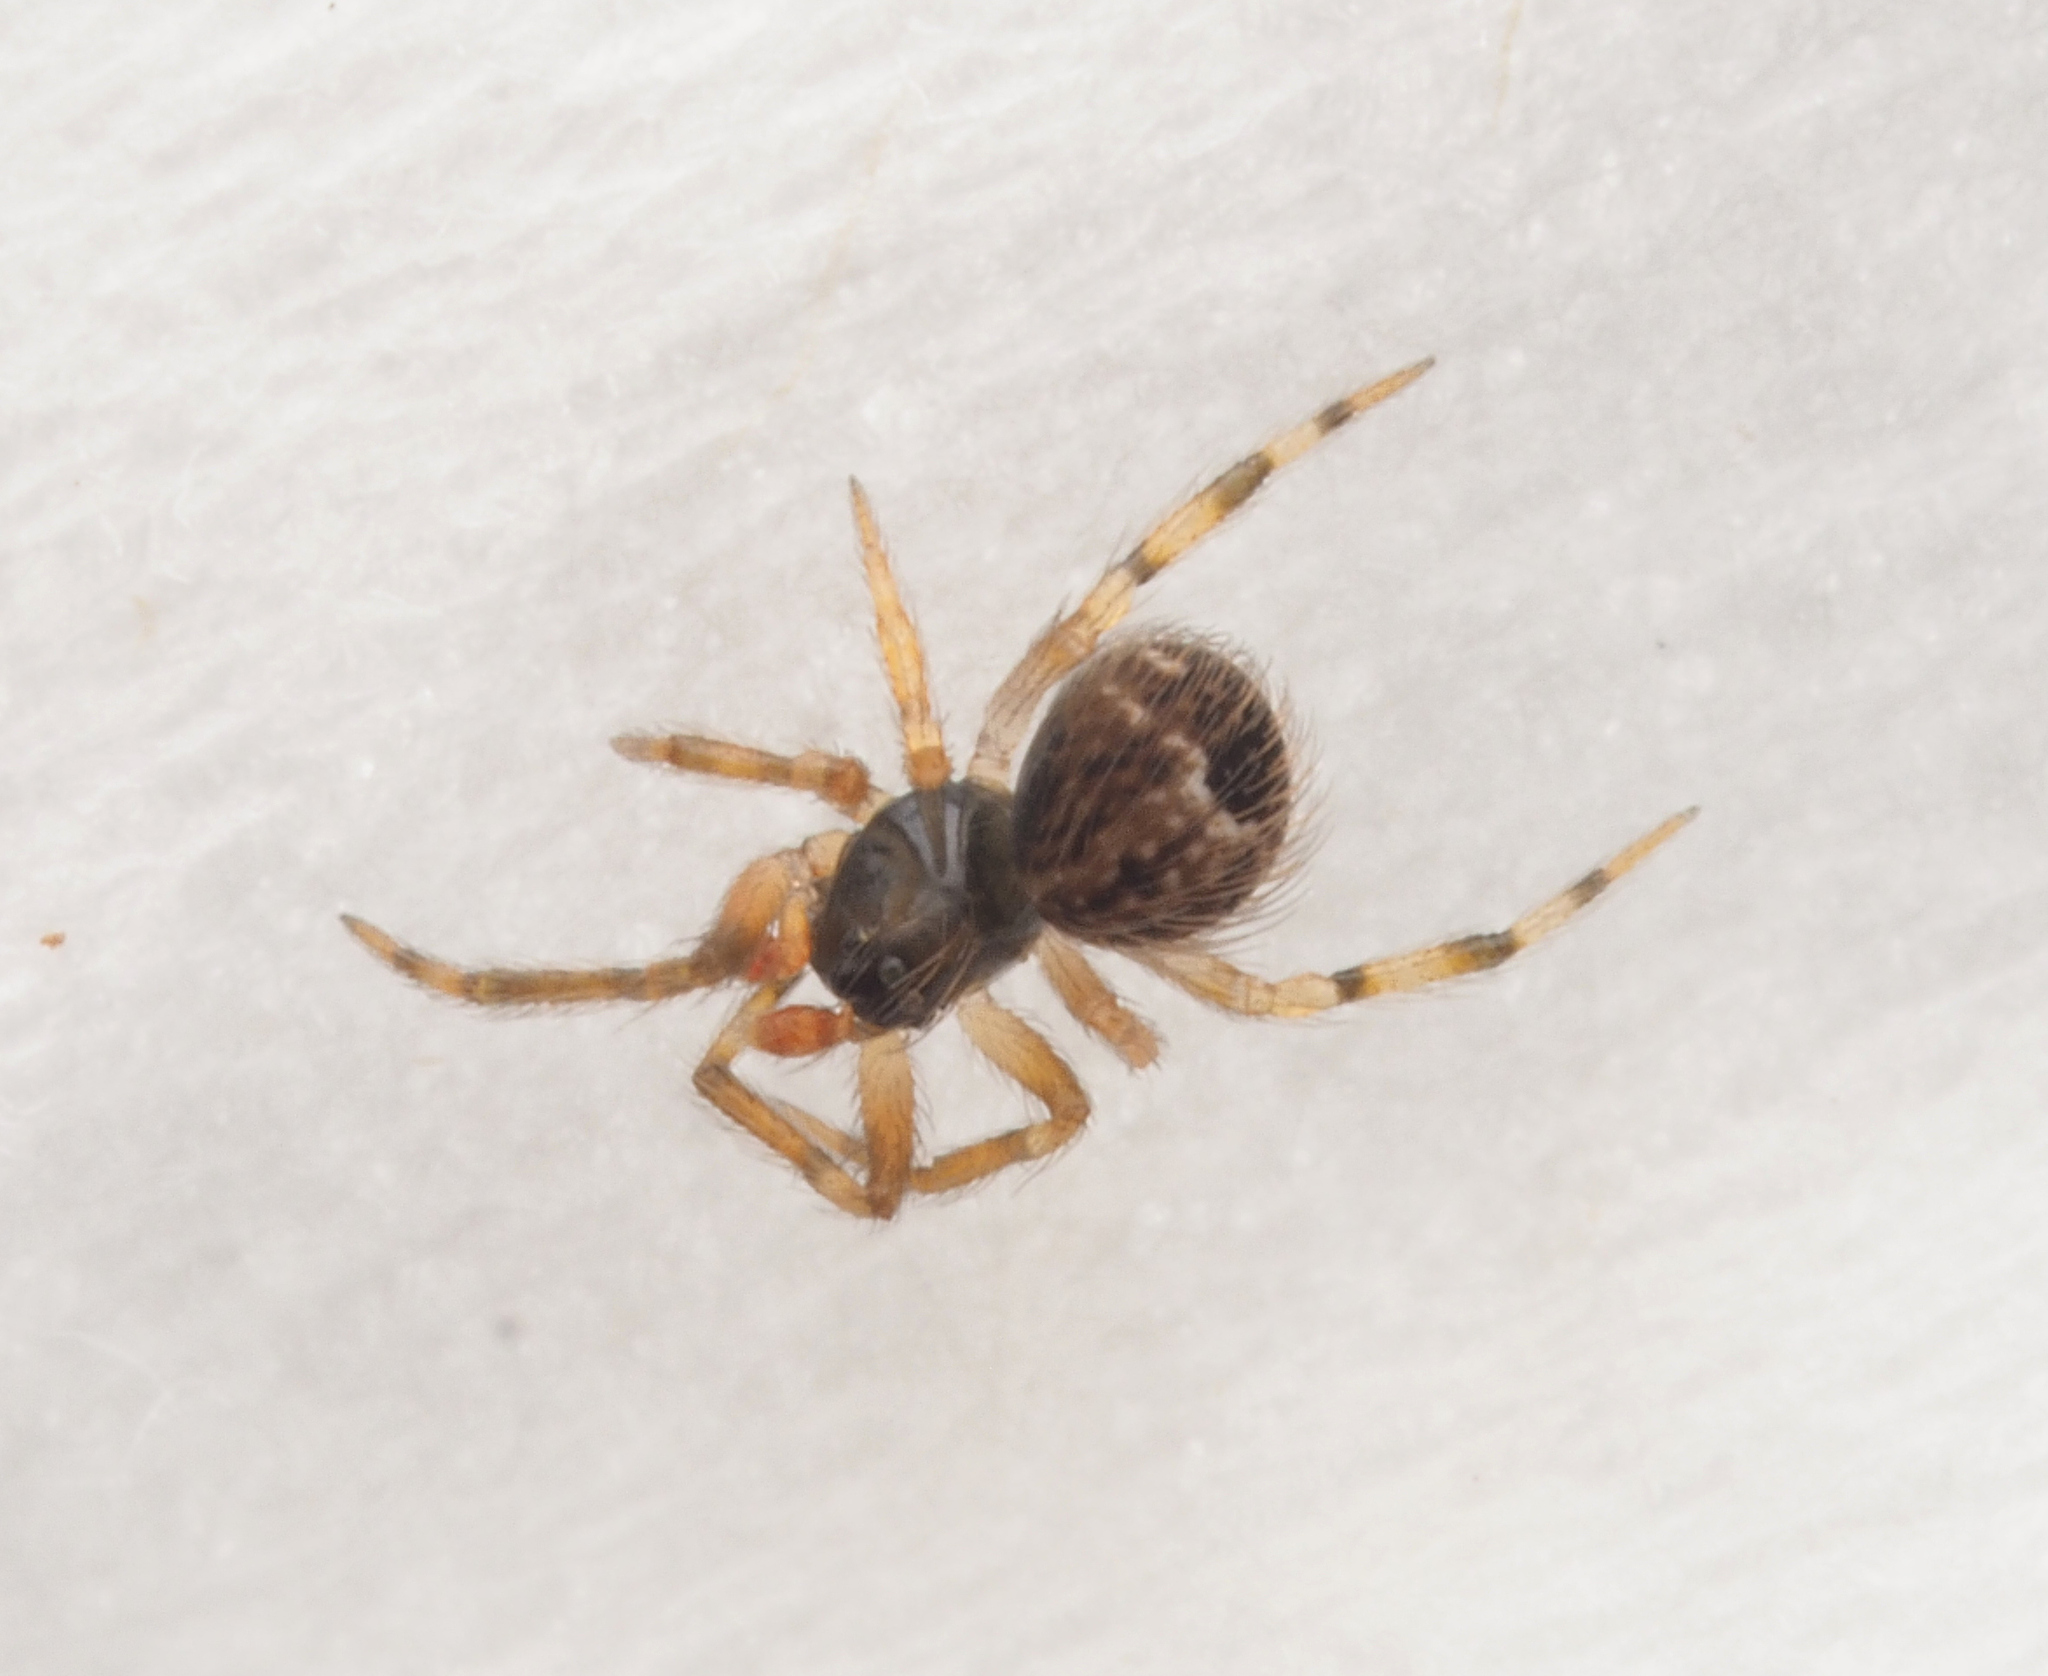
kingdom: Animalia
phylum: Arthropoda
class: Arachnida
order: Araneae
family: Theridiidae
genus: Dipoena
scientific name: Dipoena
